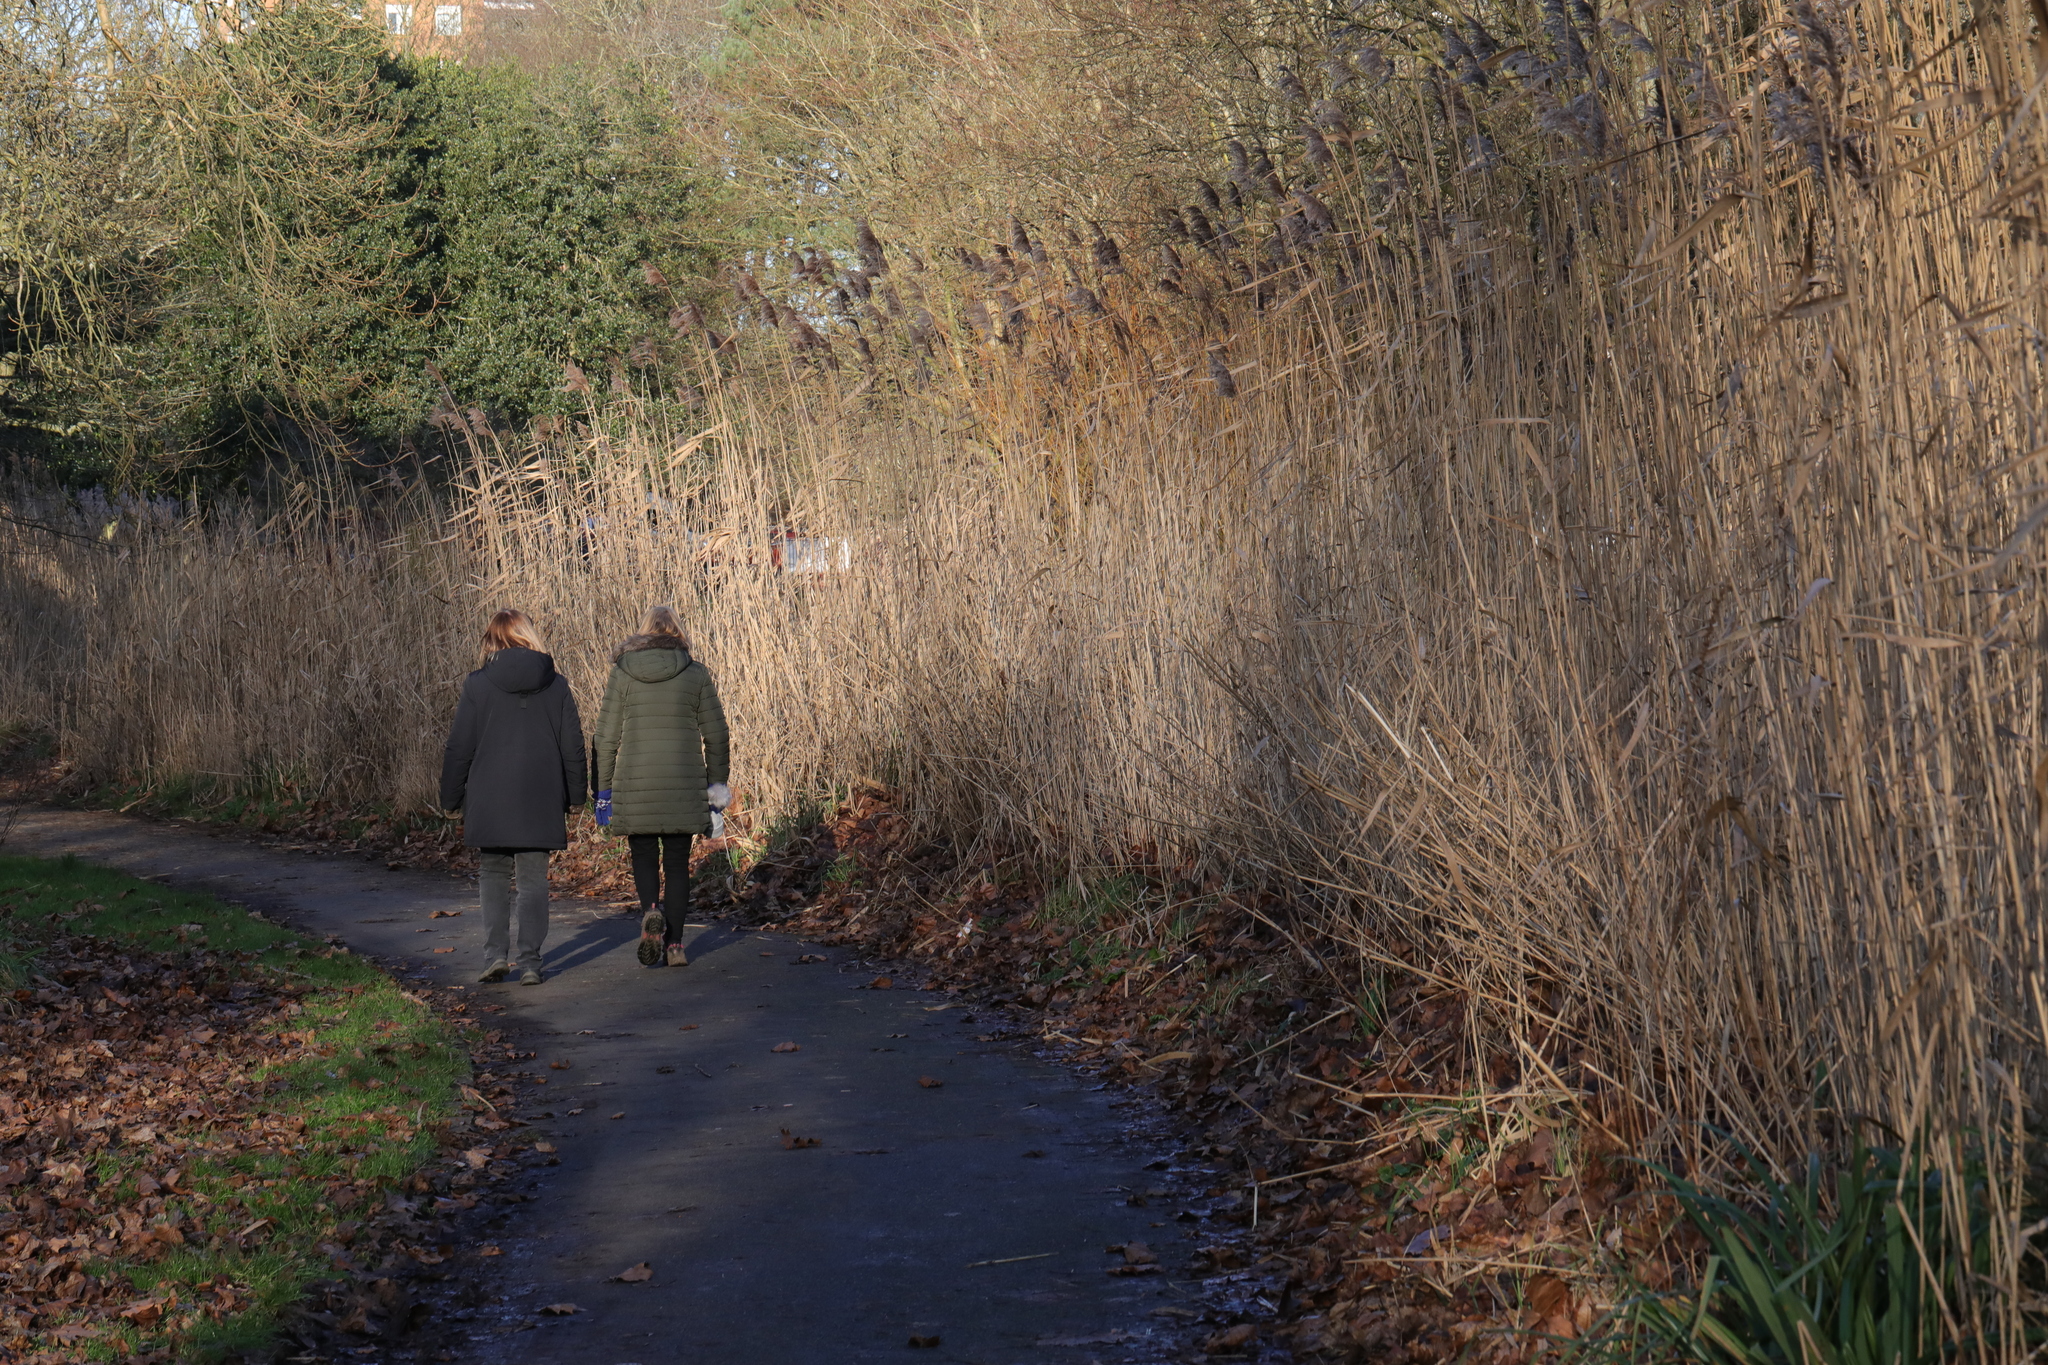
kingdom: Plantae
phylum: Tracheophyta
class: Liliopsida
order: Poales
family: Poaceae
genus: Phragmites
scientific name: Phragmites australis
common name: Common reed
